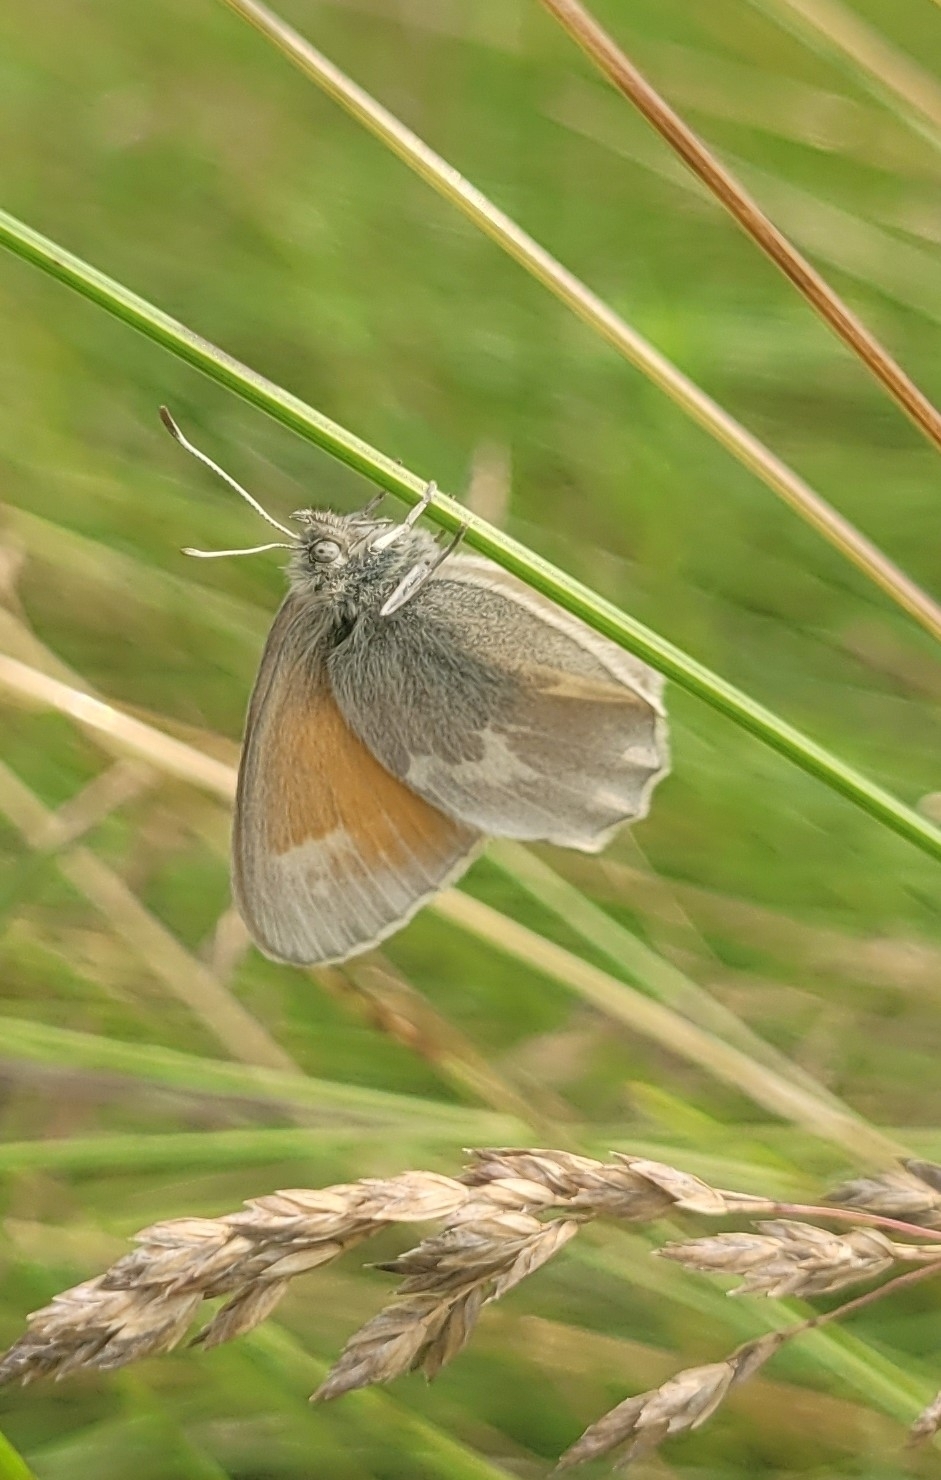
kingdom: Animalia
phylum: Arthropoda
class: Insecta
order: Lepidoptera
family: Nymphalidae
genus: Coenonympha
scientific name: Coenonympha tullia
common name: Large heath
